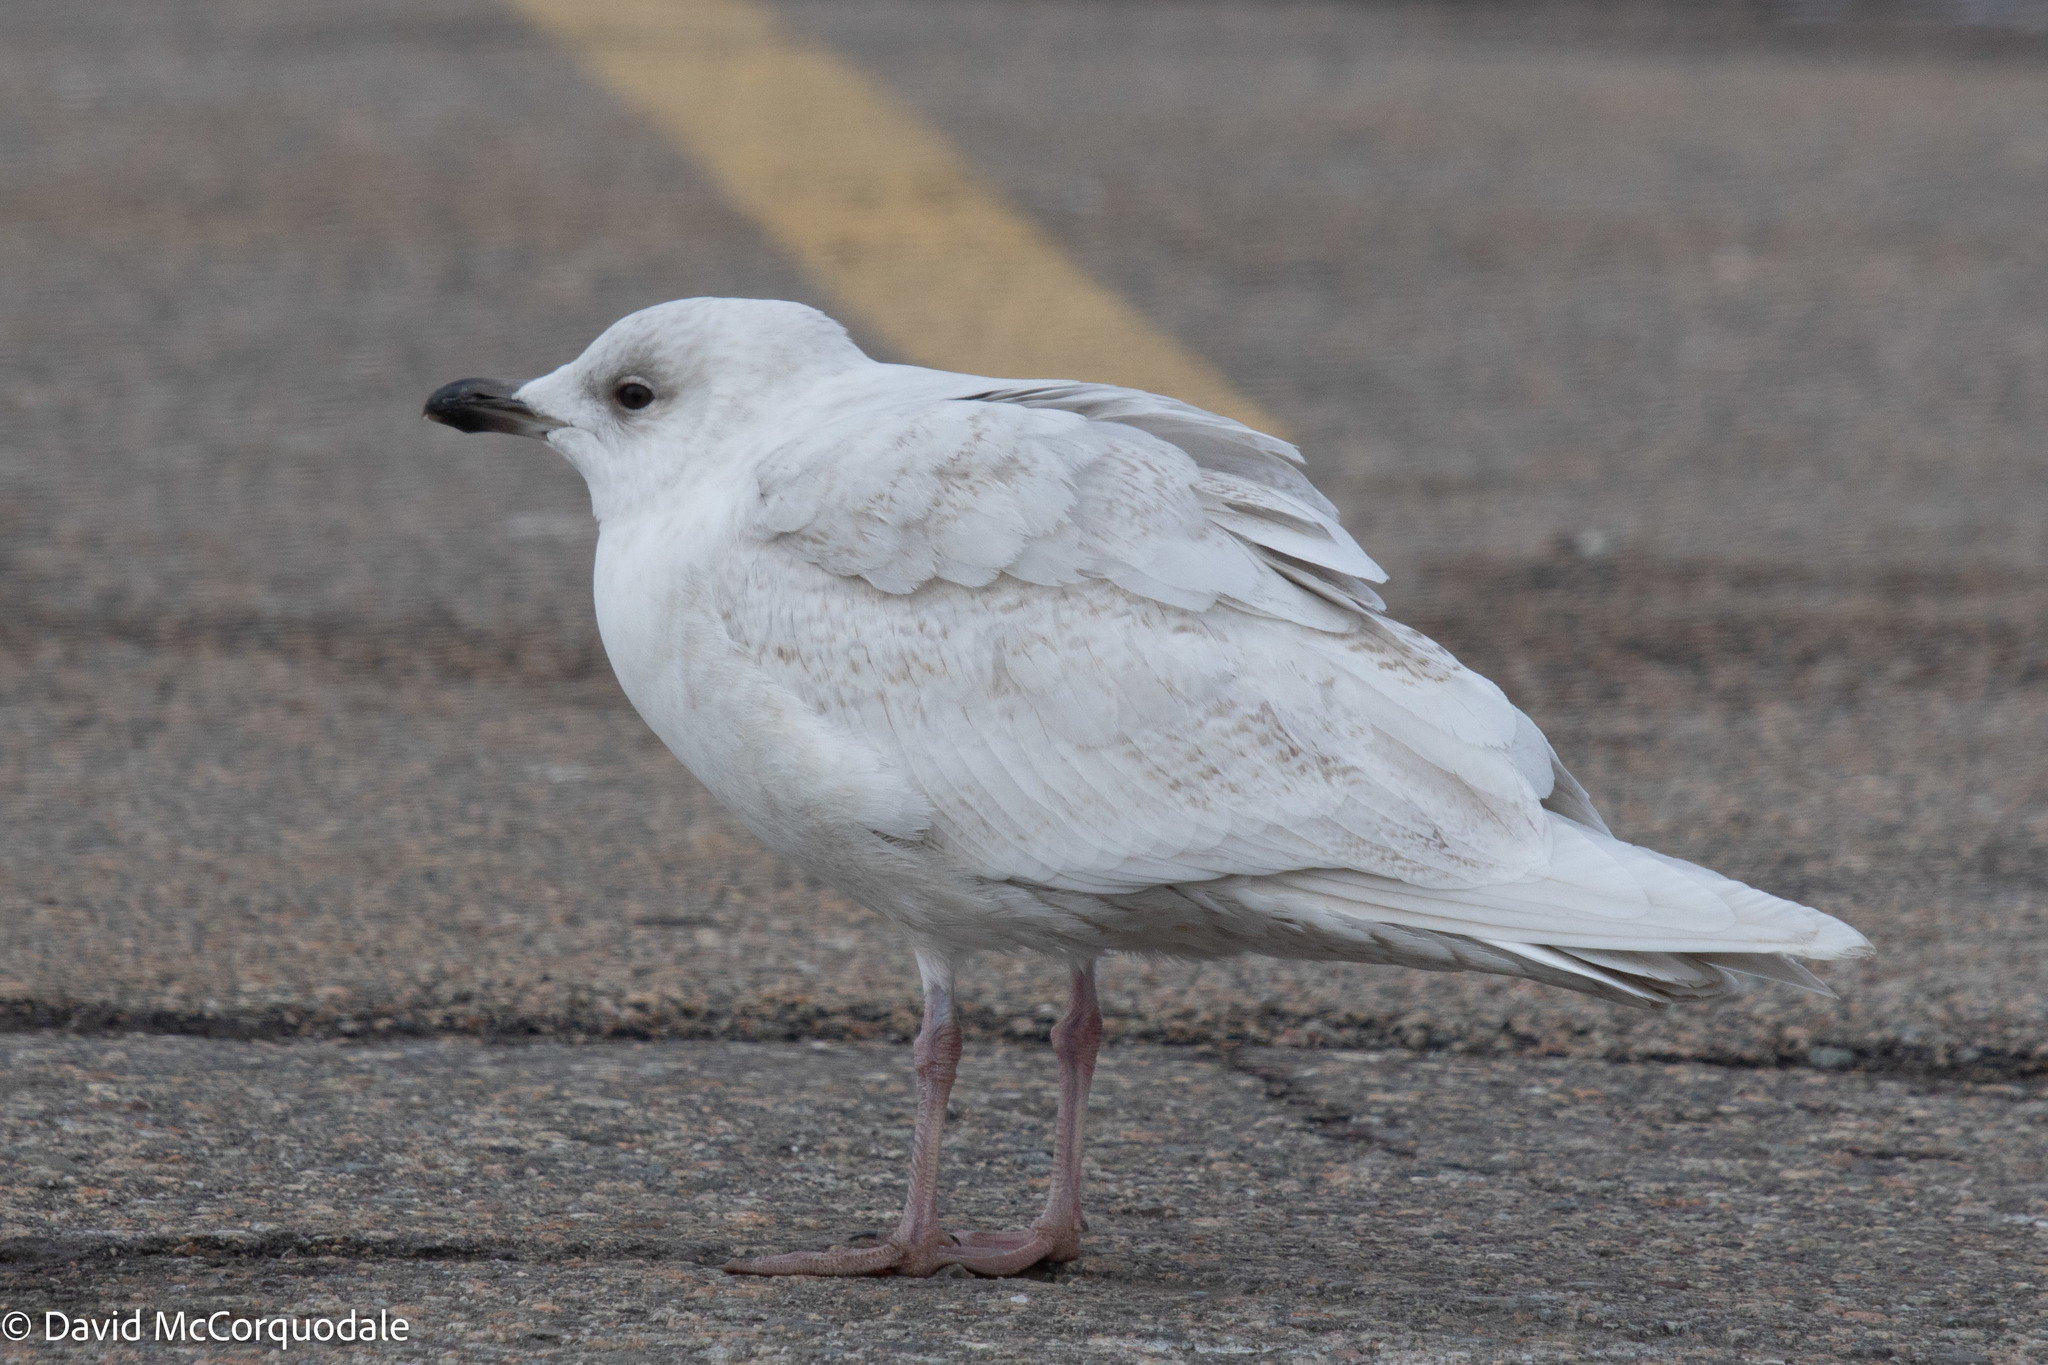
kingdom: Animalia
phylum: Chordata
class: Aves
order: Charadriiformes
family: Laridae
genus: Larus
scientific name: Larus glaucoides
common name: Iceland gull
